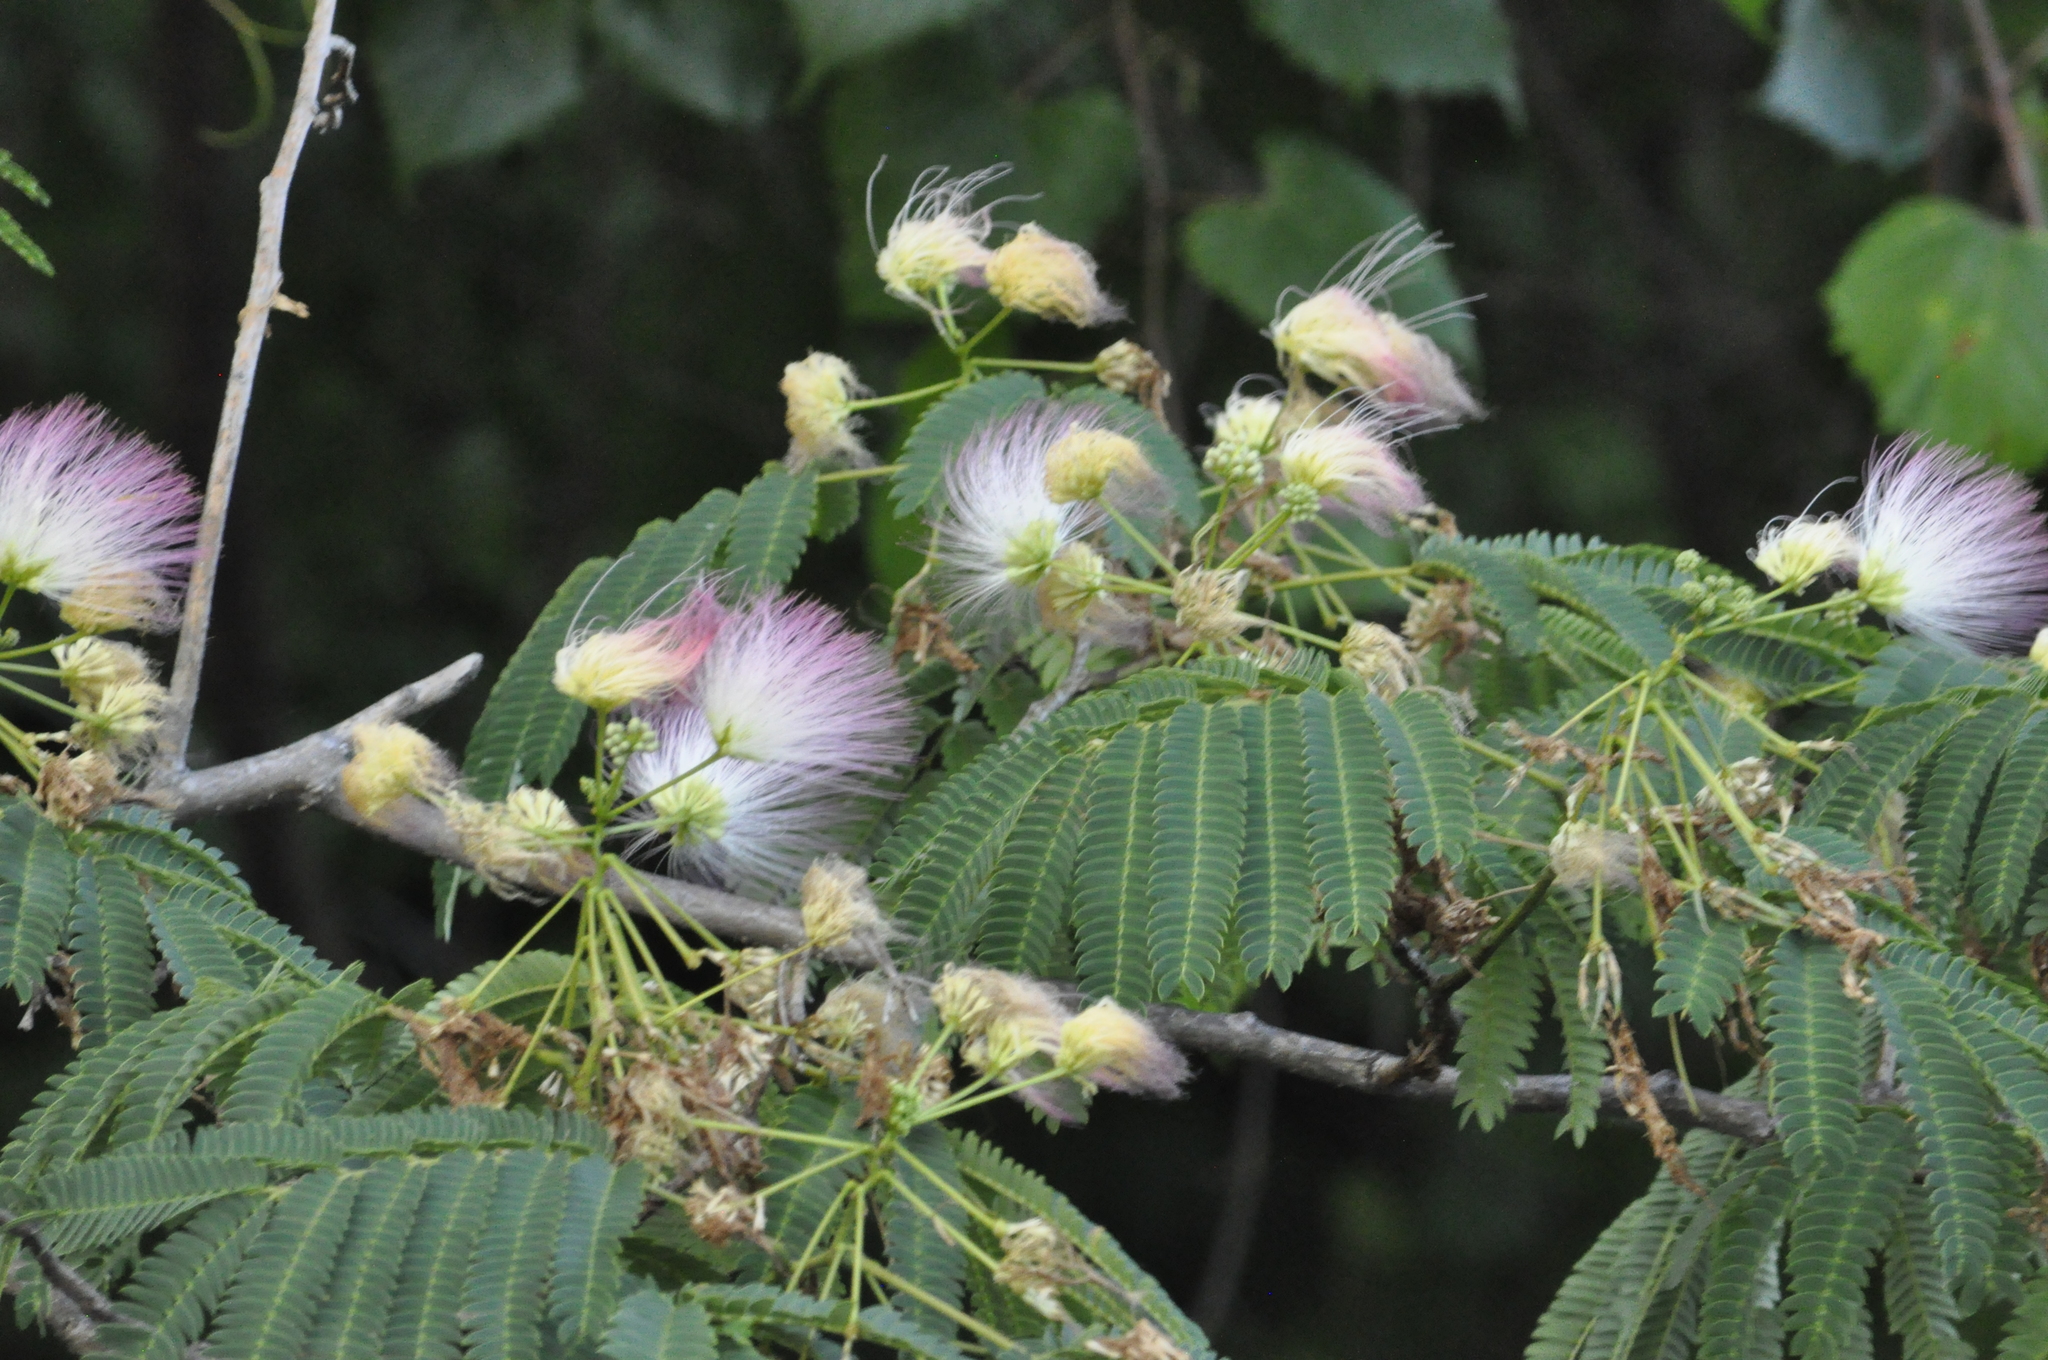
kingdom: Plantae
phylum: Tracheophyta
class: Magnoliopsida
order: Fabales
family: Fabaceae
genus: Albizia
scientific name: Albizia julibrissin
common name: Silktree
